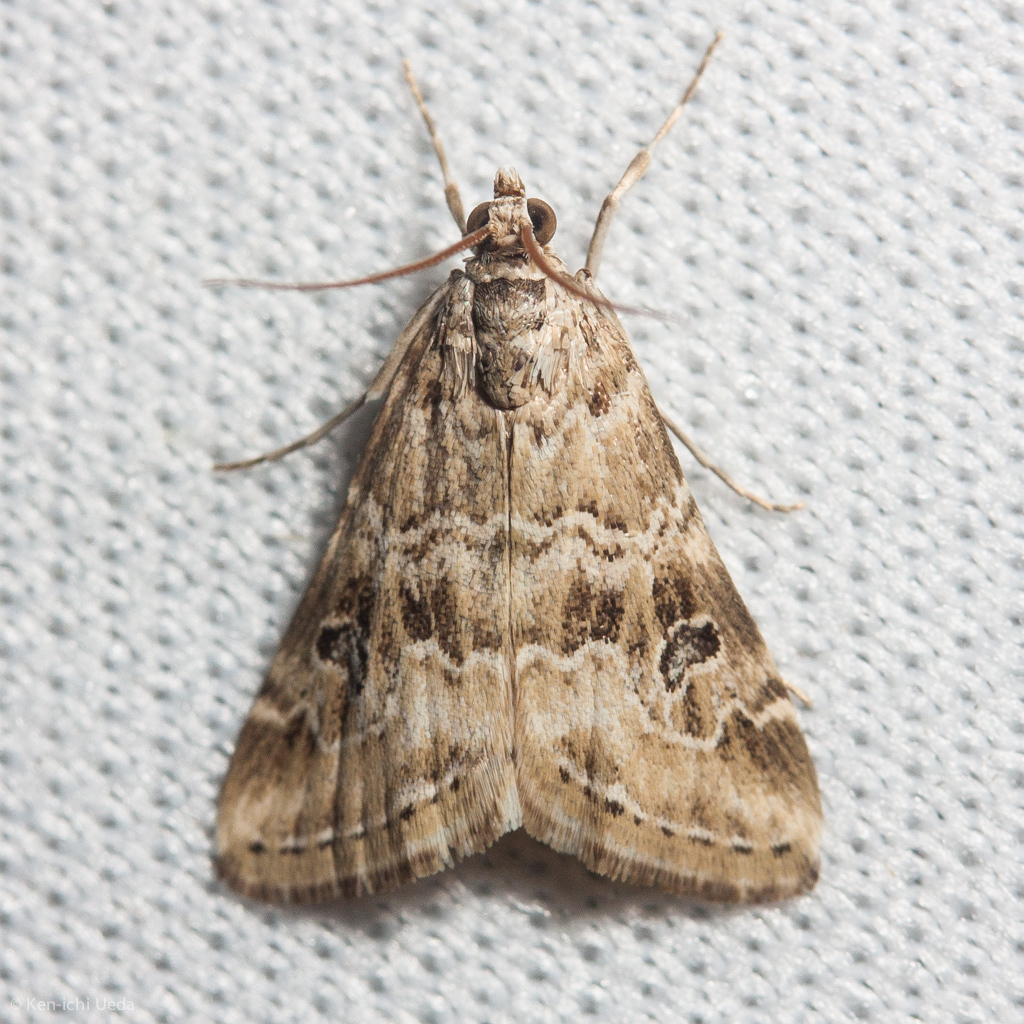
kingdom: Animalia
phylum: Arthropoda
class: Insecta
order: Lepidoptera
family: Crambidae
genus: Hellula
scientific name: Hellula rogatalis
